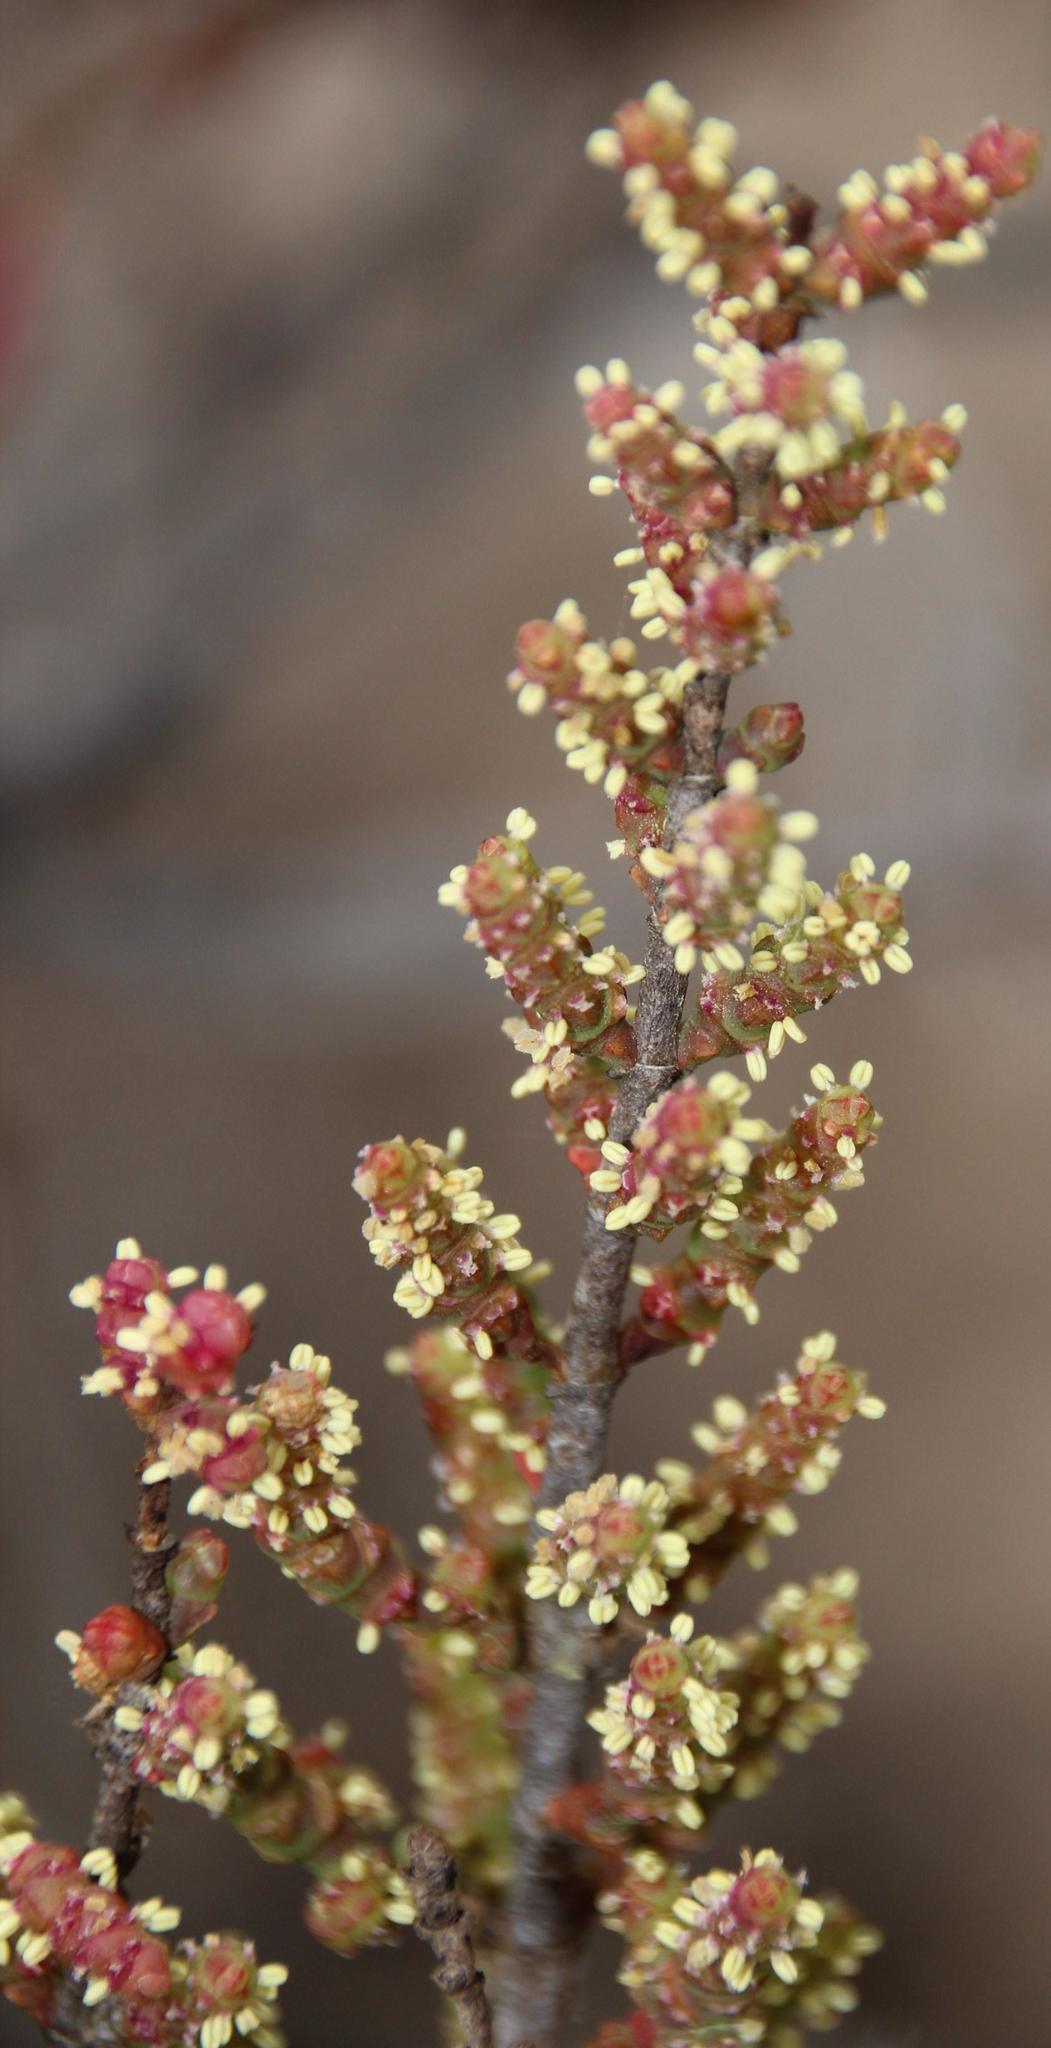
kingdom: Plantae
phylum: Tracheophyta
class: Magnoliopsida
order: Caryophyllales
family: Amaranthaceae
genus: Salicornia
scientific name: Salicornia pillansii
